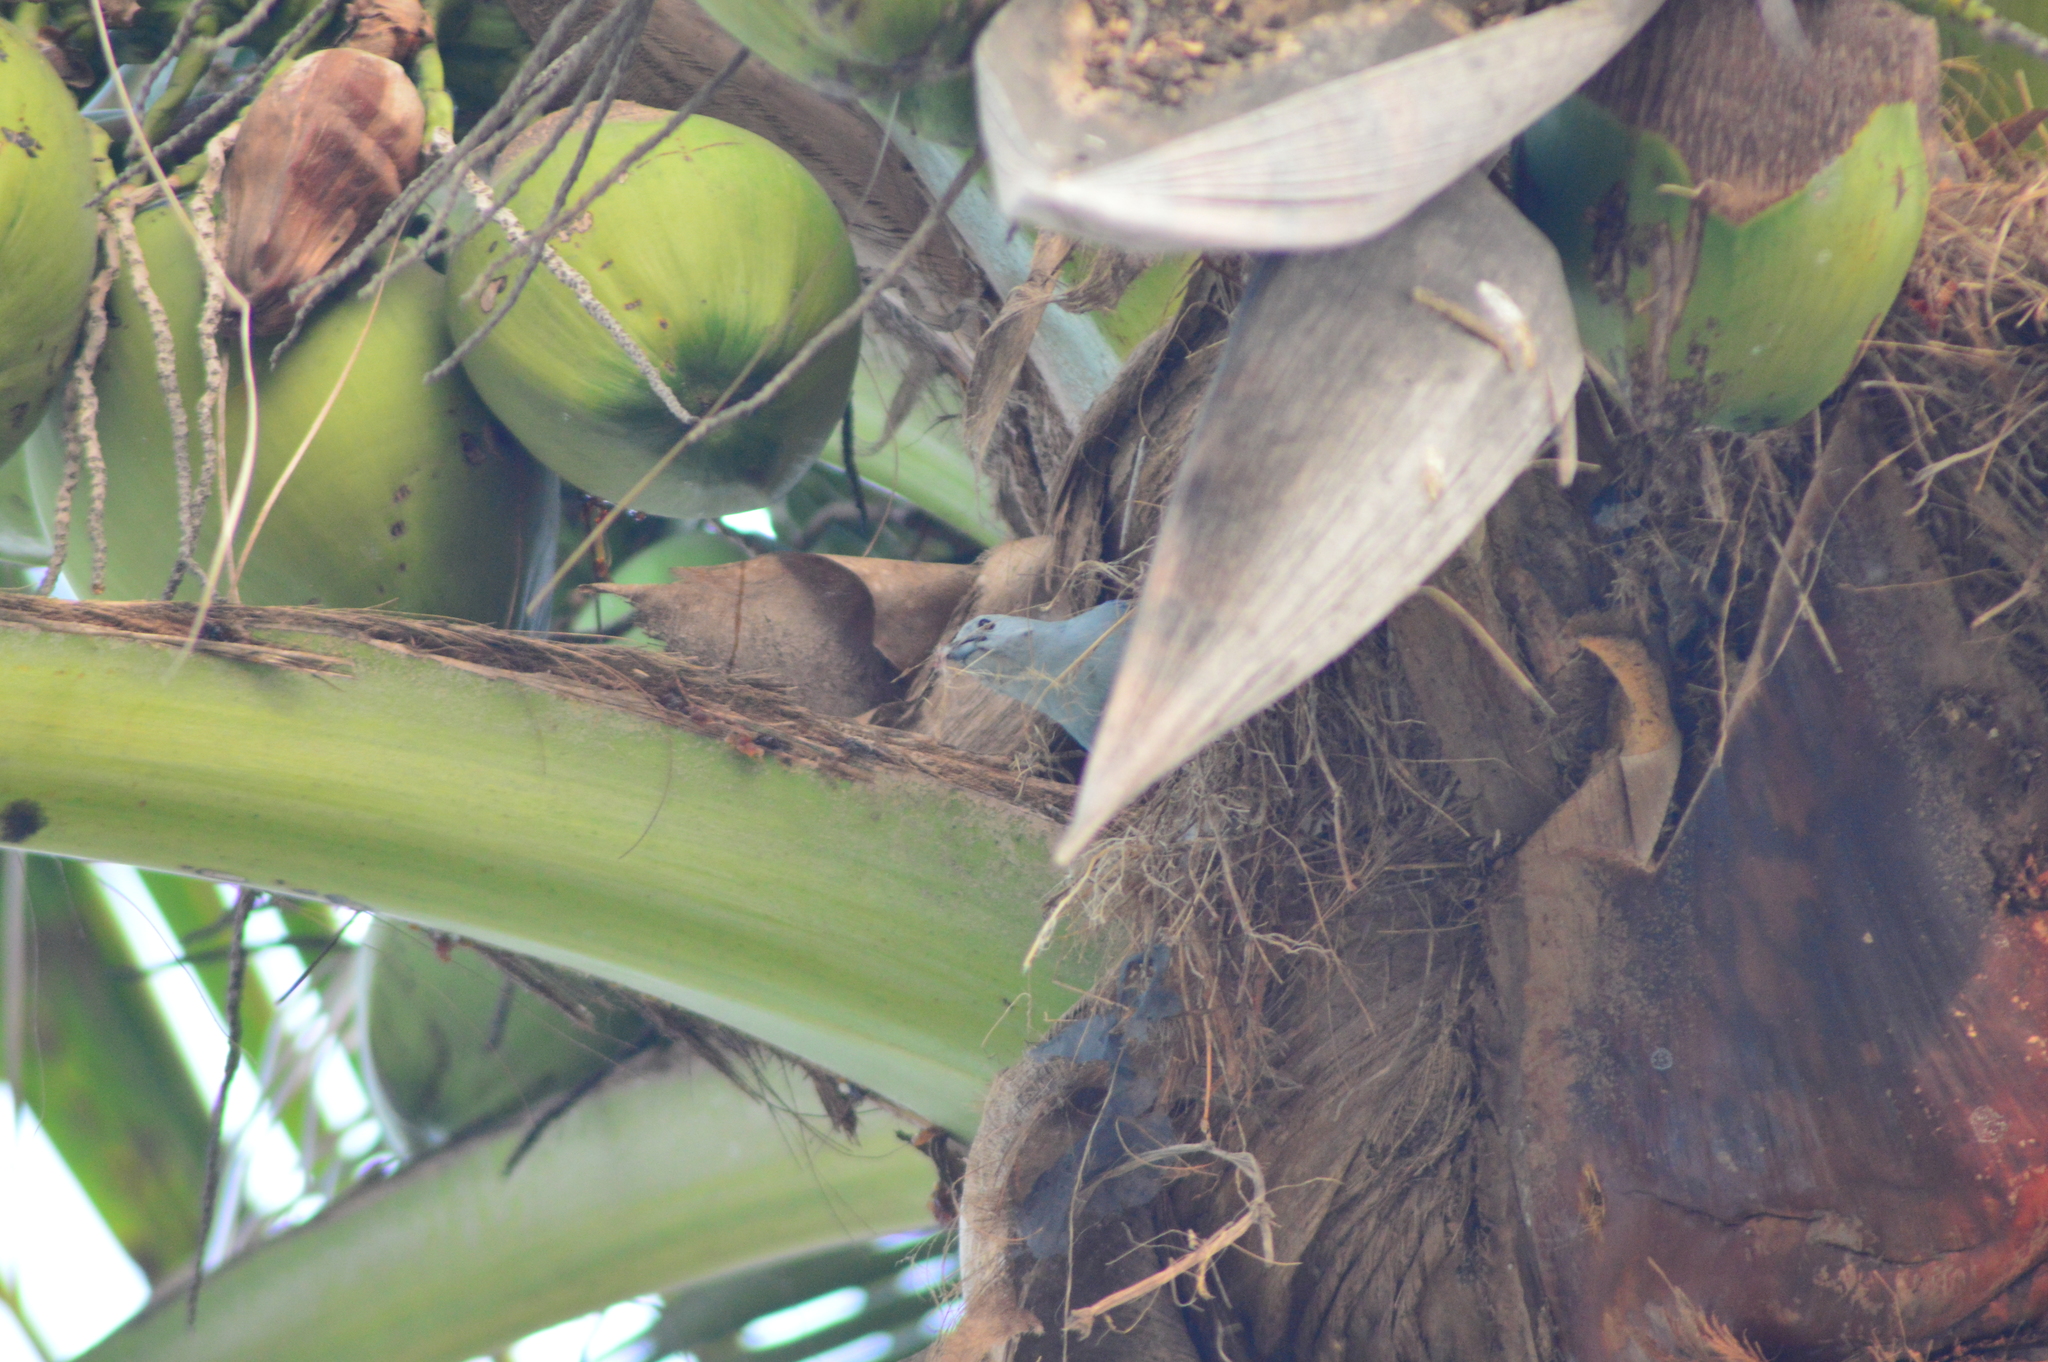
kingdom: Animalia
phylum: Chordata
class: Aves
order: Passeriformes
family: Thraupidae
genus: Thraupis
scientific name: Thraupis episcopus
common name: Blue-grey tanager
